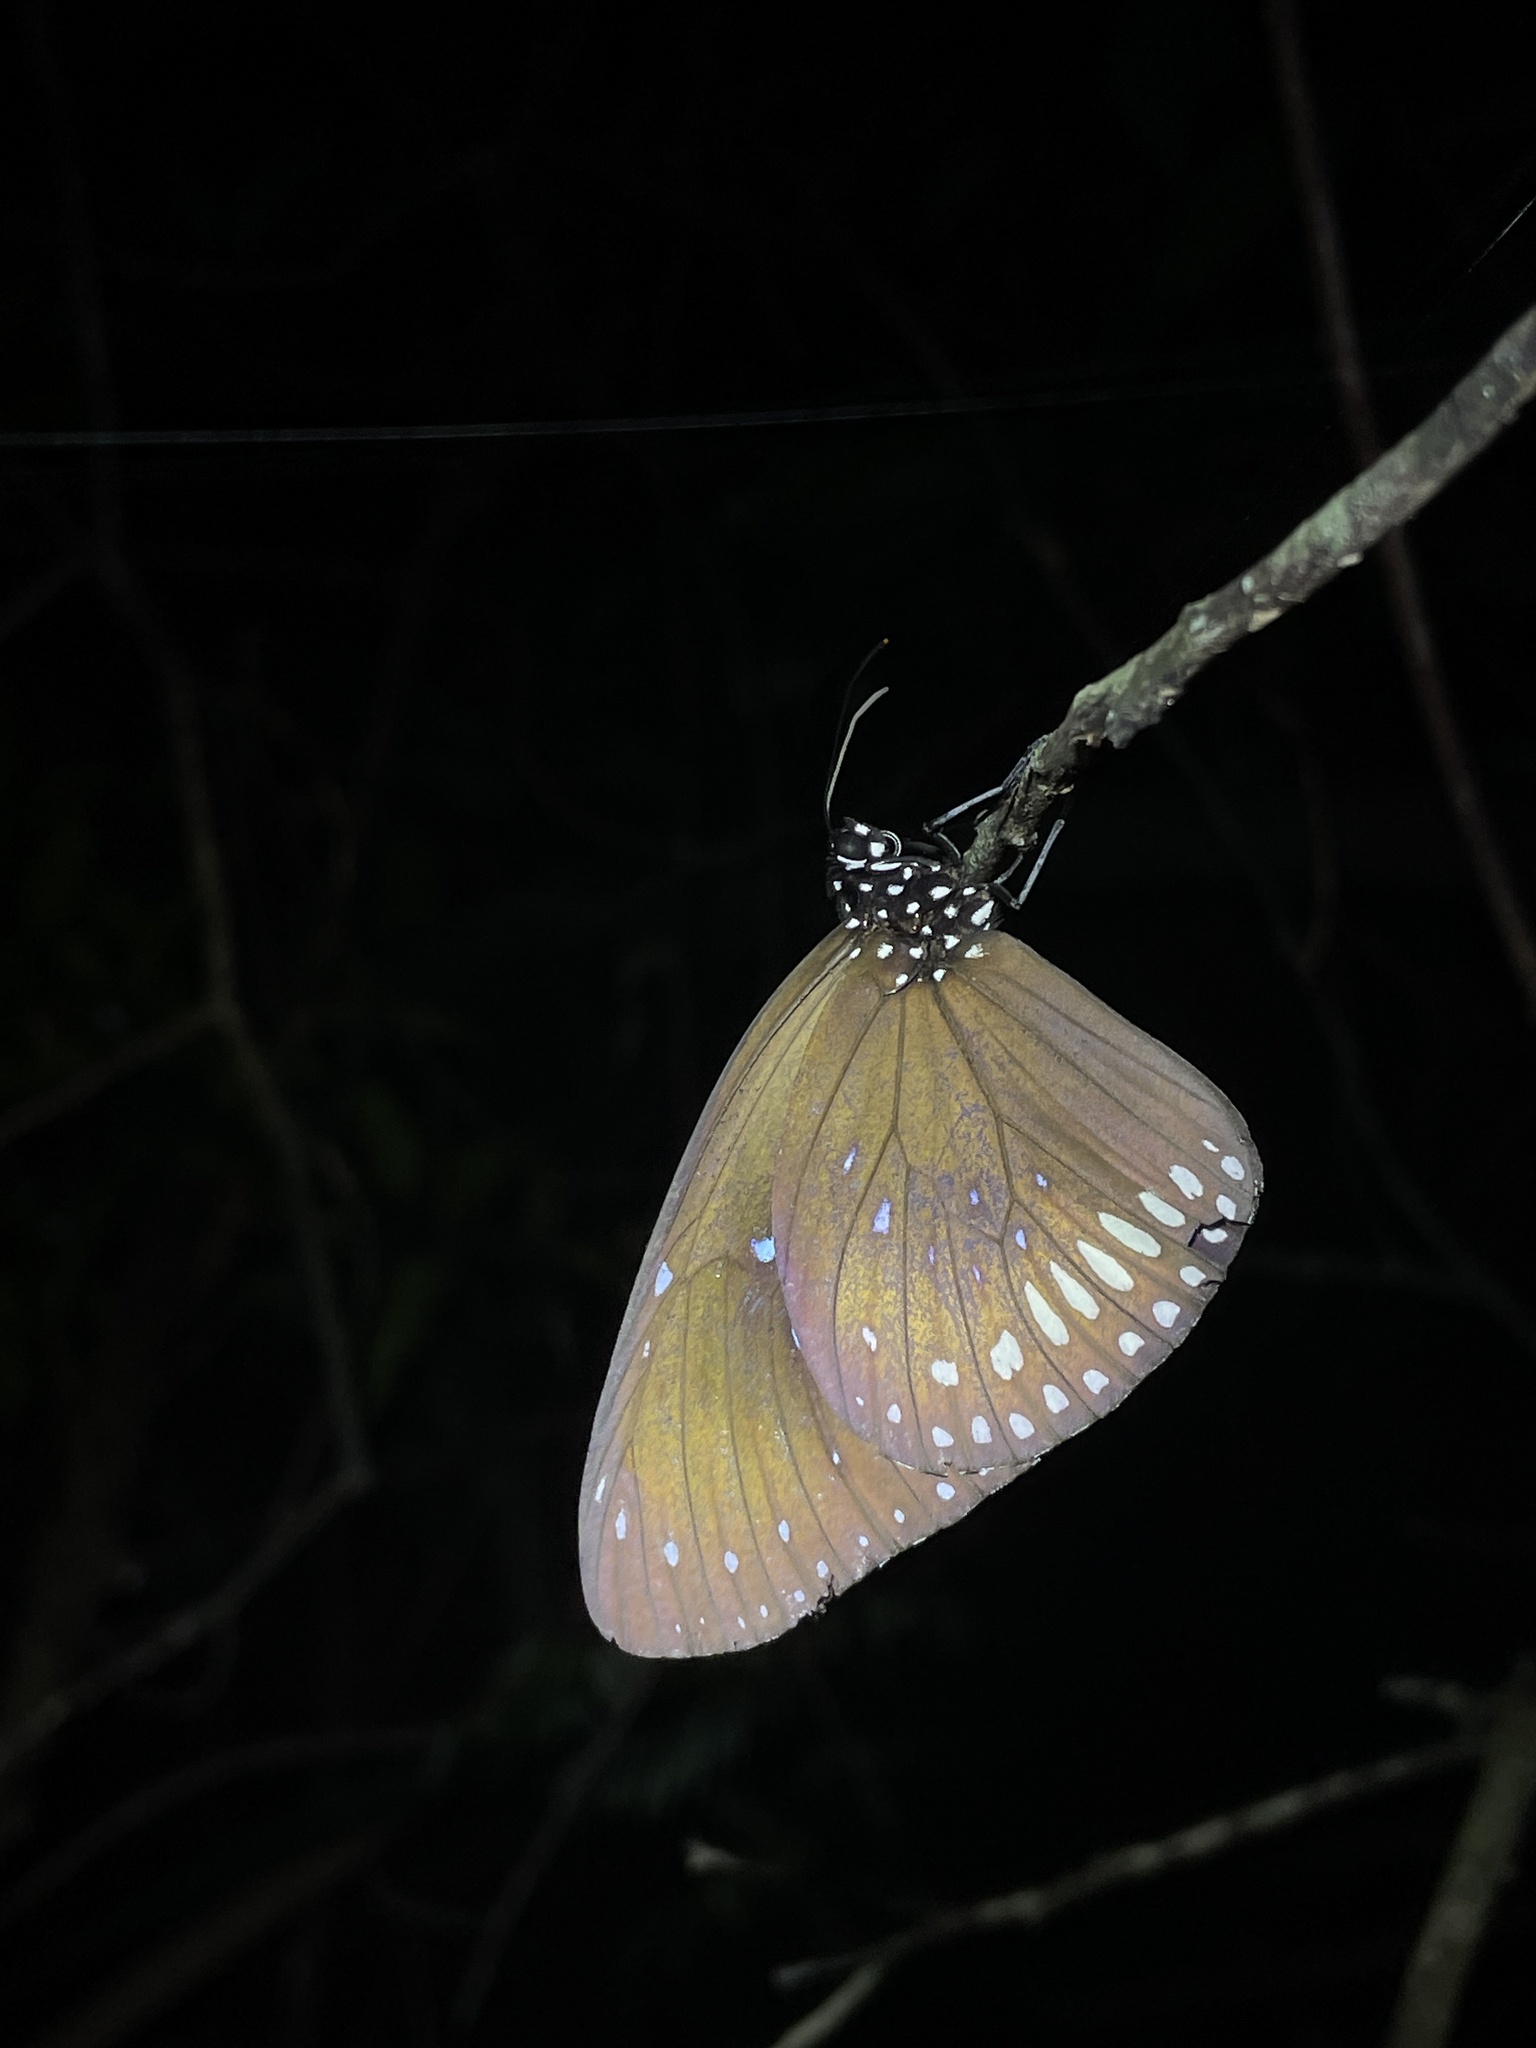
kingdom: Animalia
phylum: Arthropoda
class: Insecta
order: Lepidoptera
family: Nymphalidae
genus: Euploea
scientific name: Euploea midamus
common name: Blue-spotted crow butterfly
